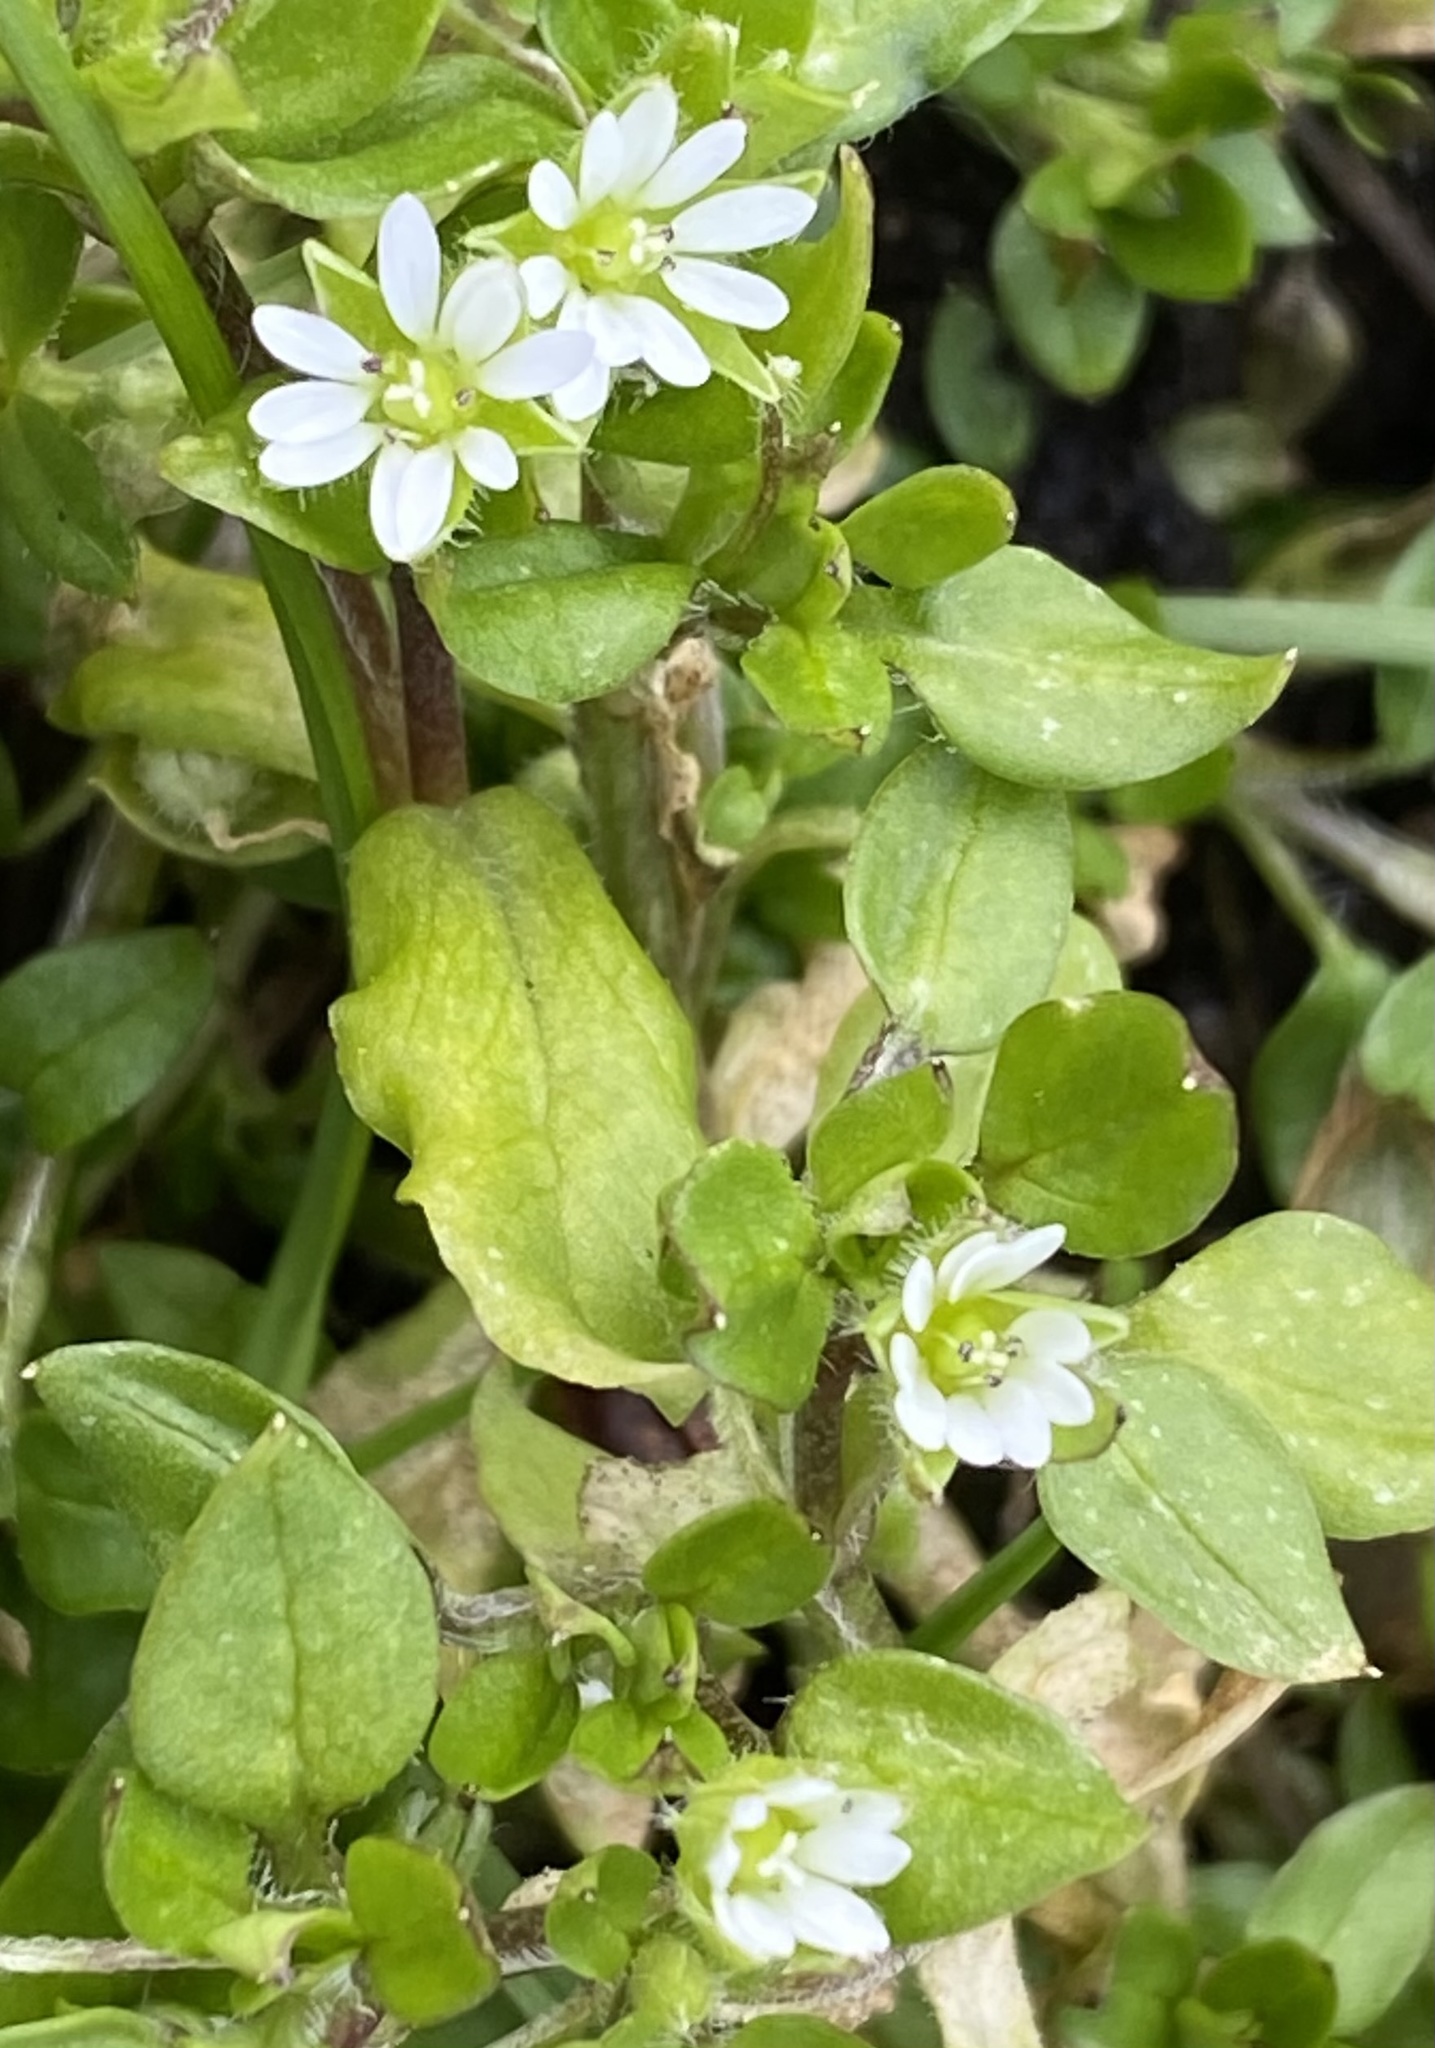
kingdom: Plantae
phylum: Tracheophyta
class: Magnoliopsida
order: Caryophyllales
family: Caryophyllaceae
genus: Stellaria
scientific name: Stellaria media
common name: Common chickweed
